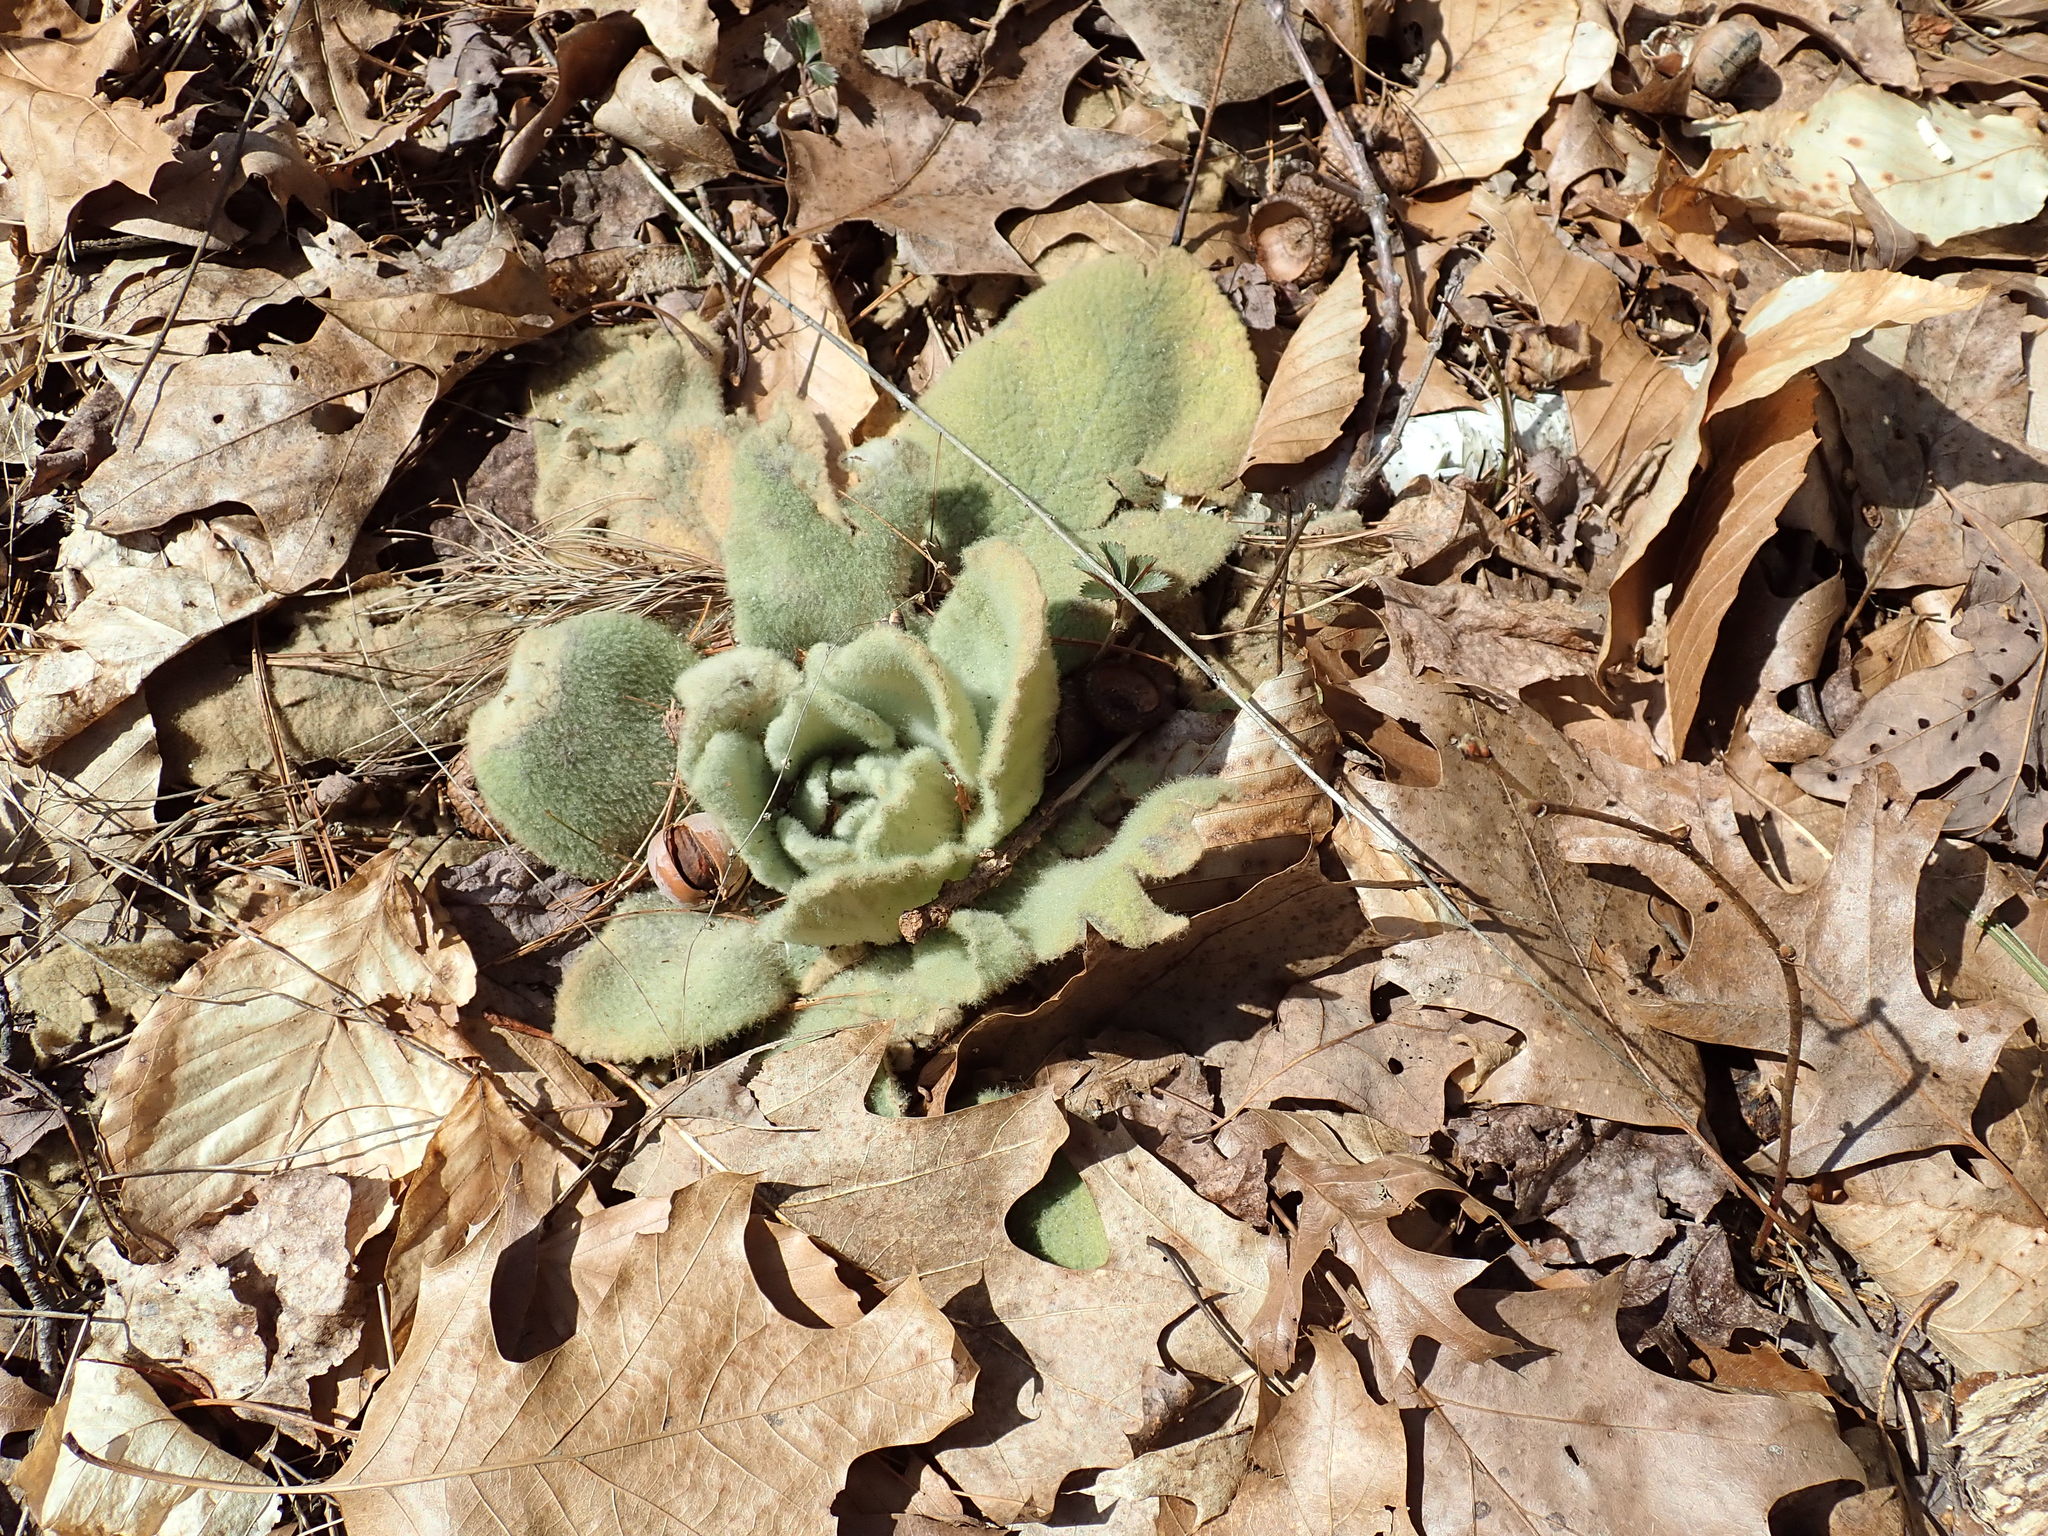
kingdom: Plantae
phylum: Tracheophyta
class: Magnoliopsida
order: Lamiales
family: Scrophulariaceae
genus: Verbascum
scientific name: Verbascum thapsus
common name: Common mullein
